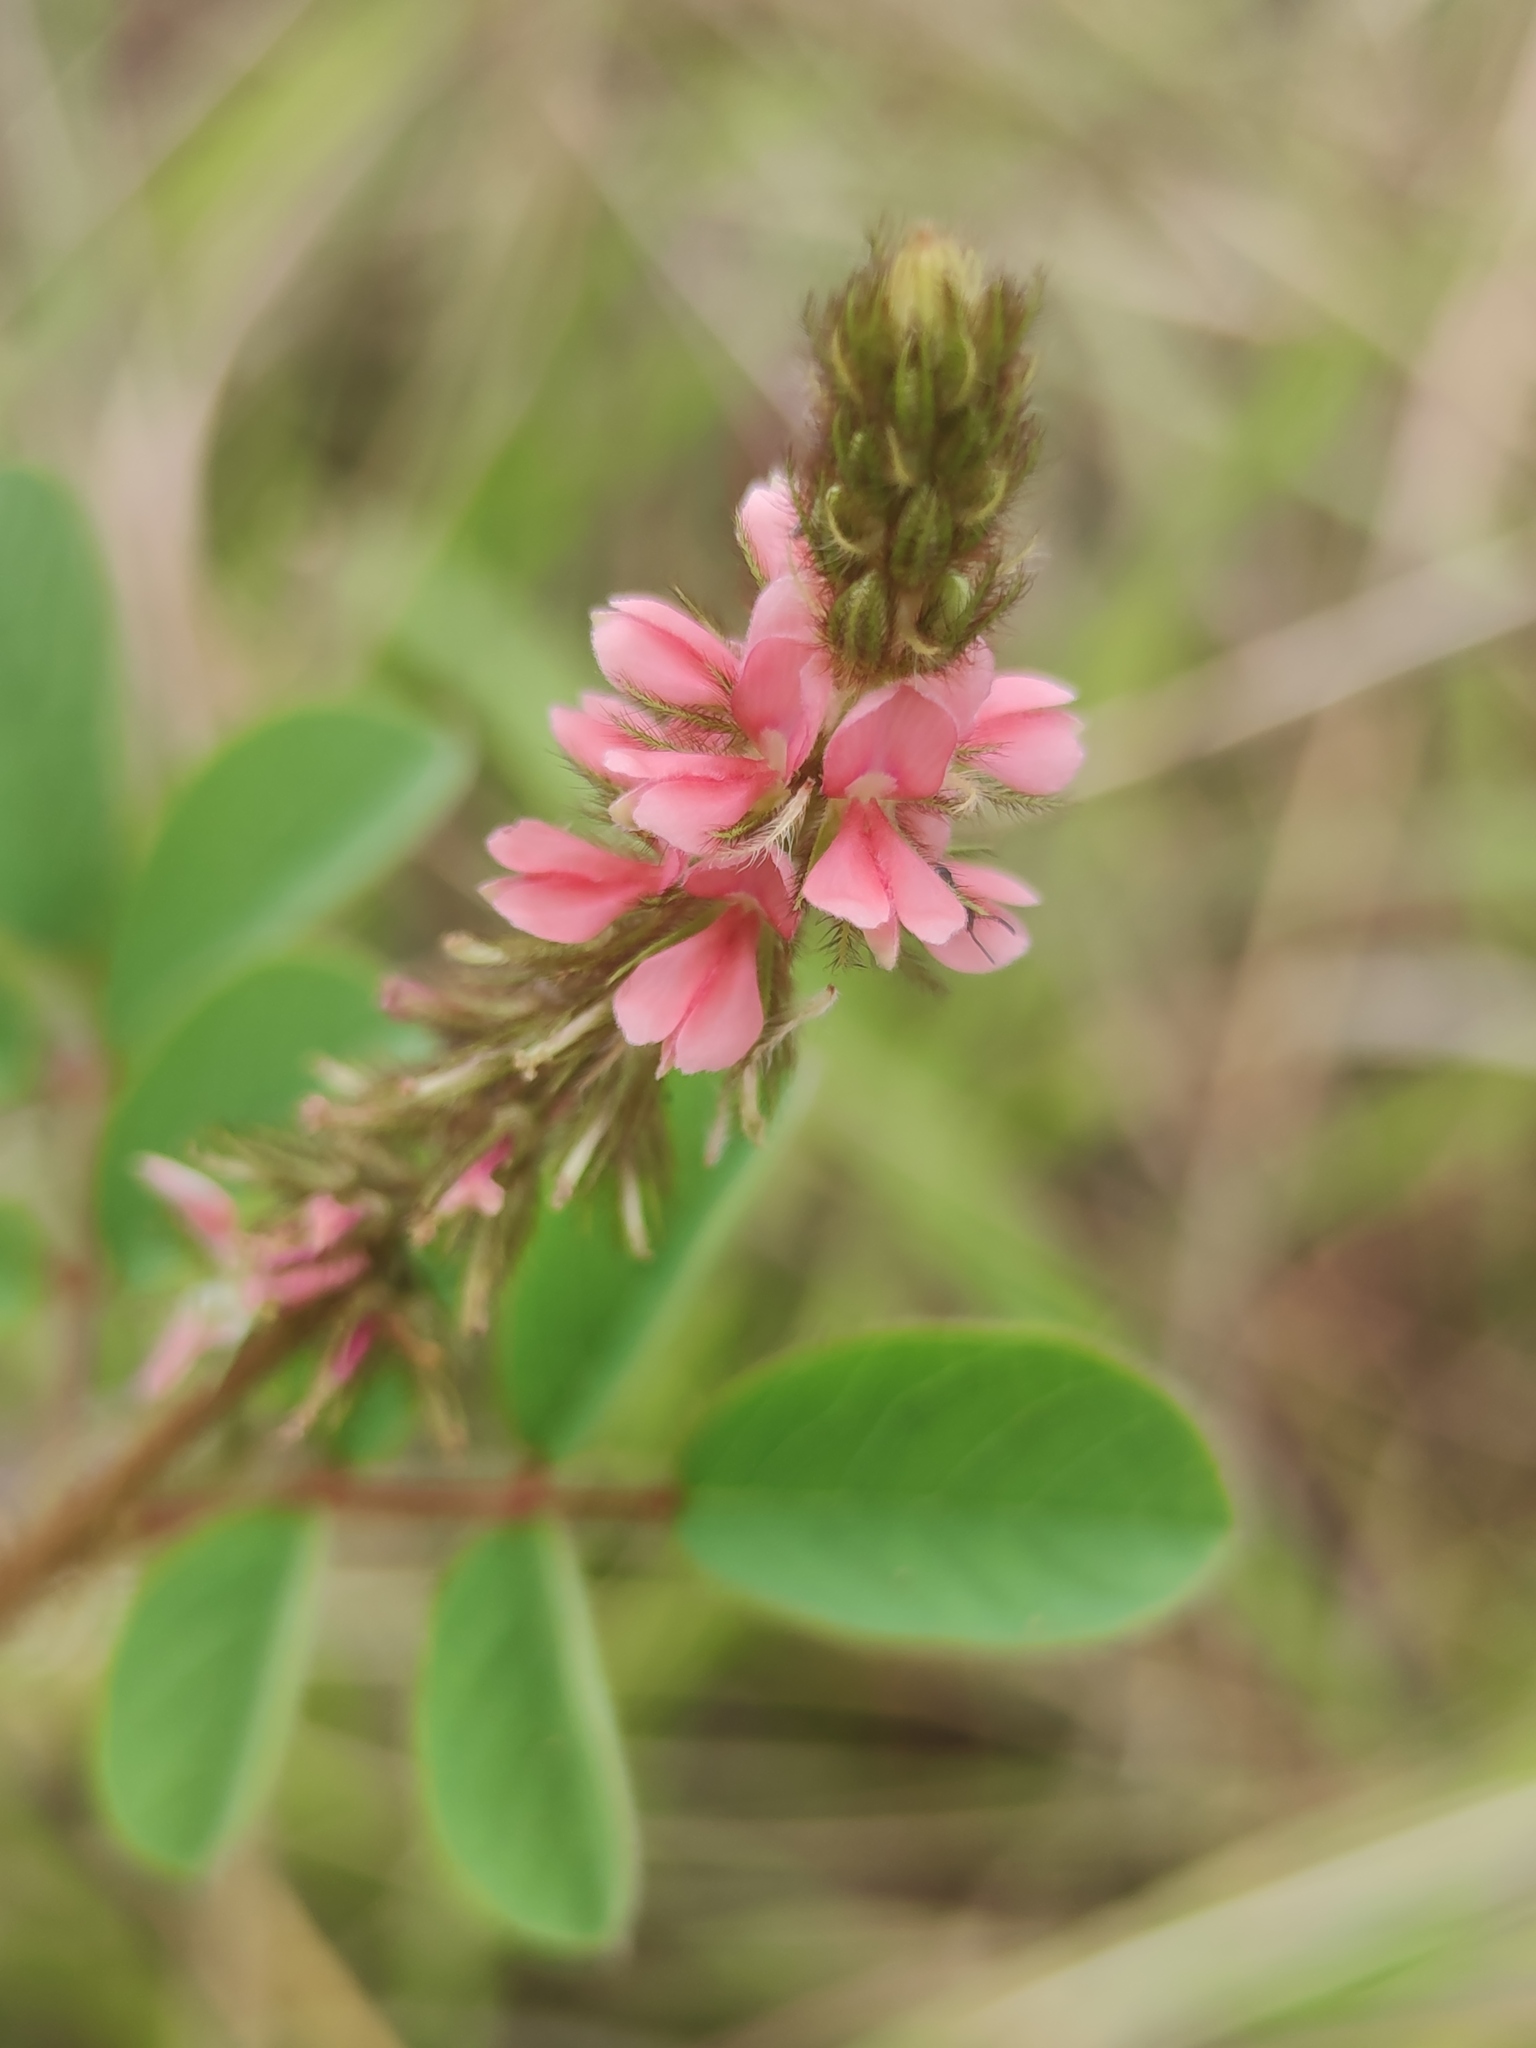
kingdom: Plantae
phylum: Tracheophyta
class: Magnoliopsida
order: Fabales
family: Fabaceae
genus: Indigofera
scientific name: Indigofera hirsuta
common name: Hairy indigo
